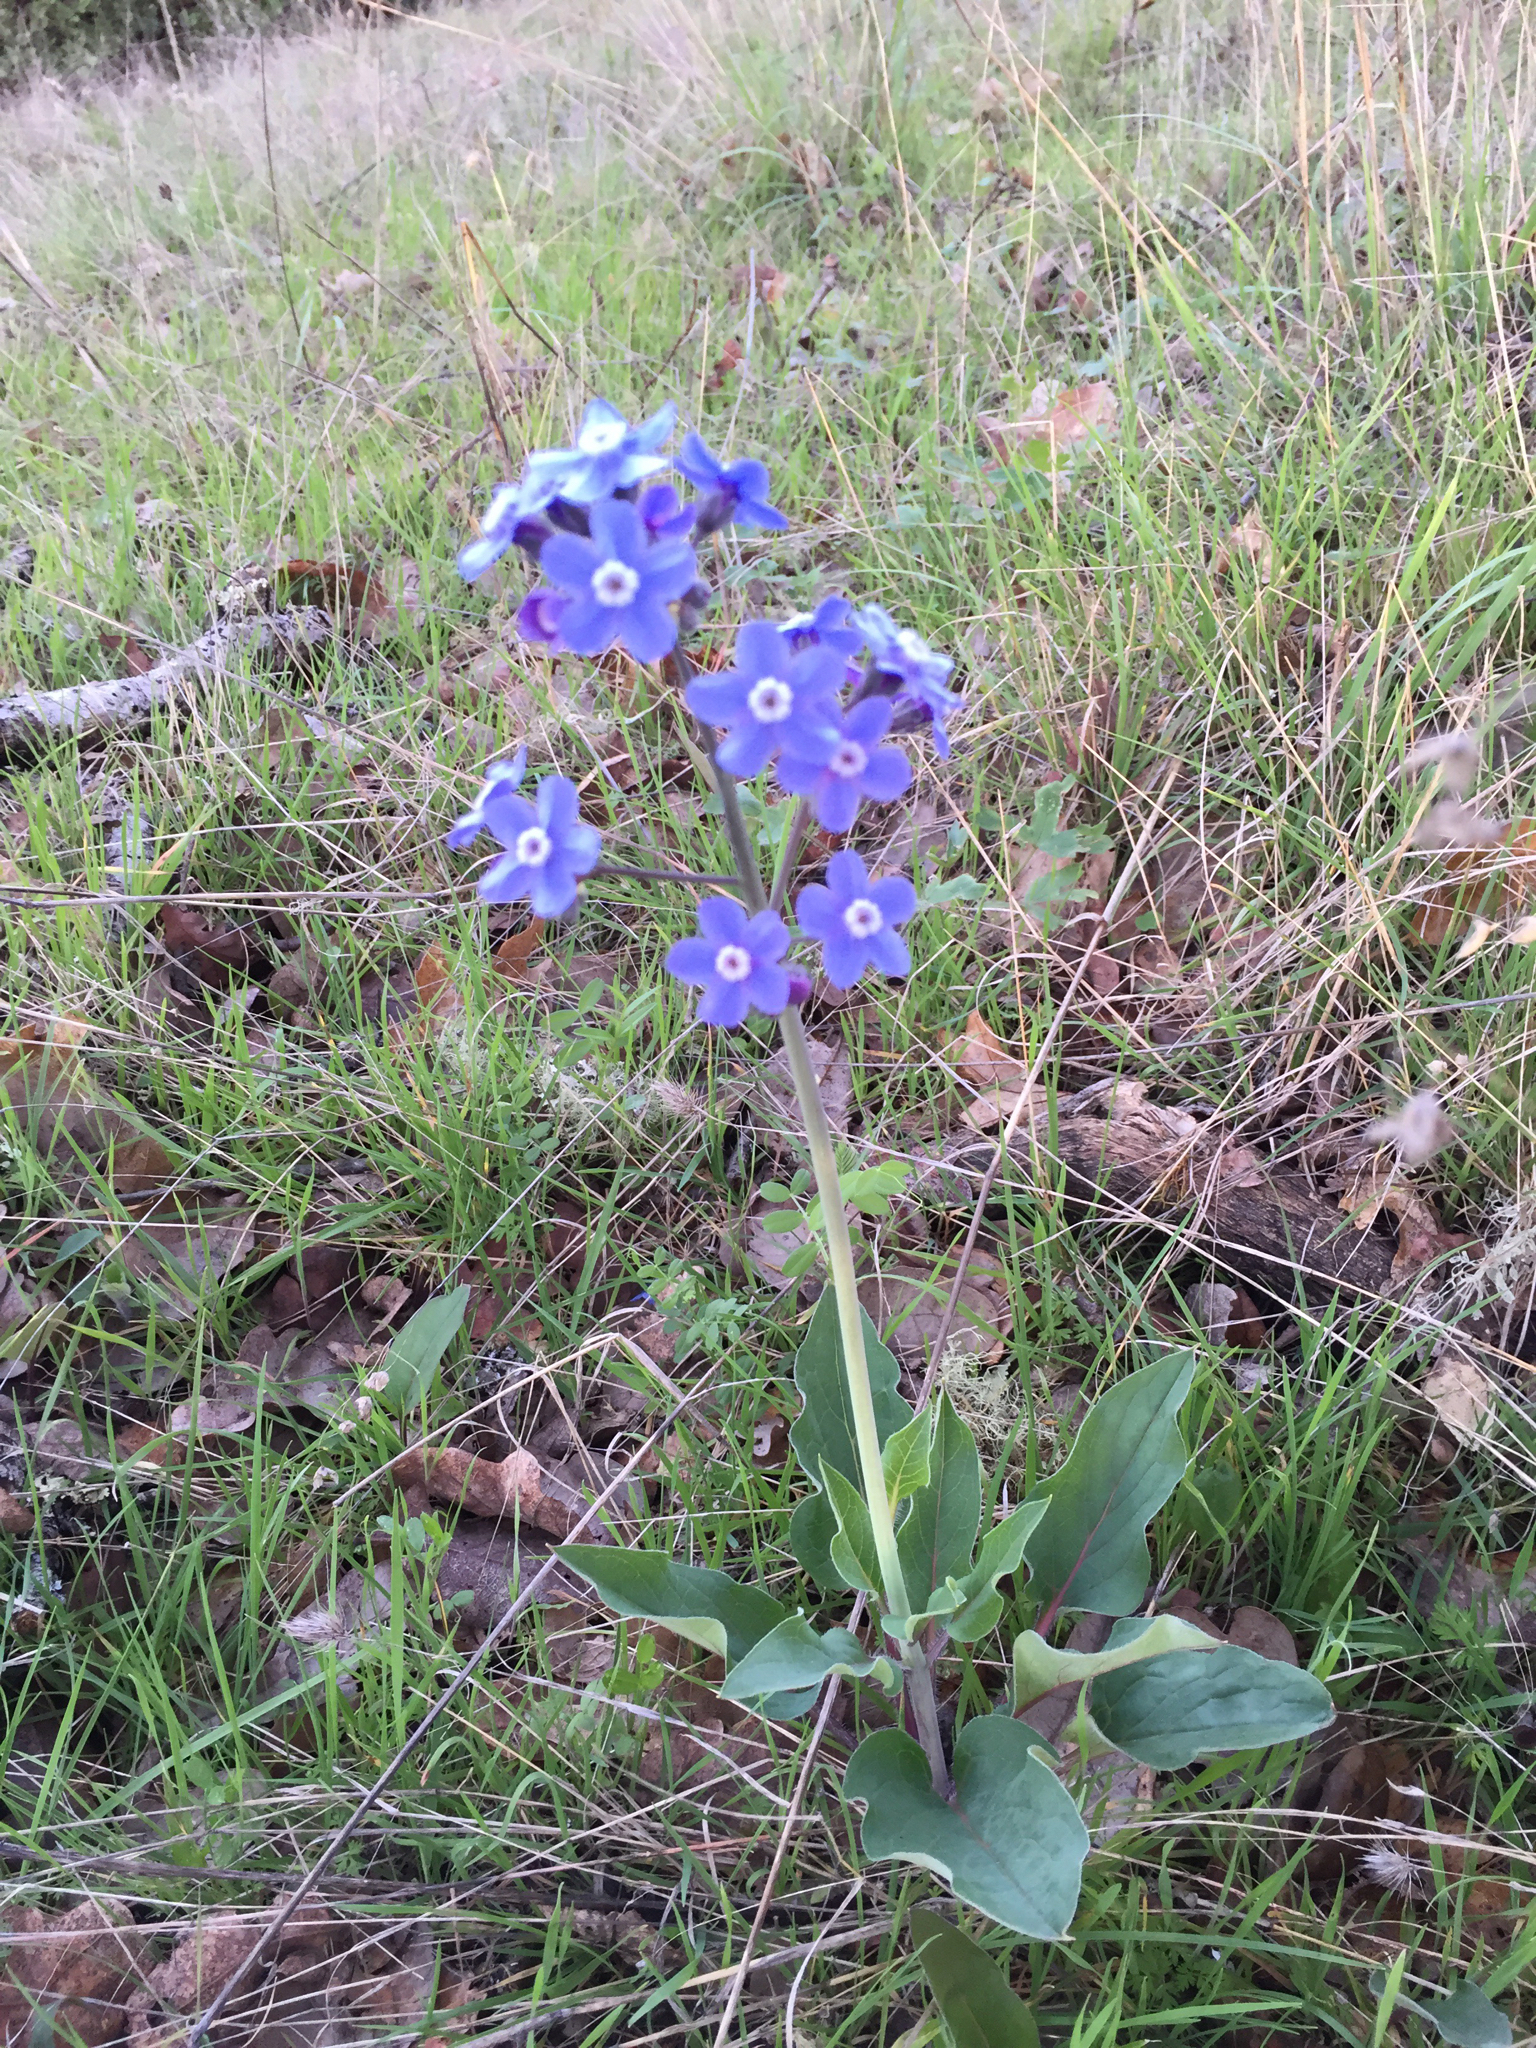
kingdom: Plantae
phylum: Tracheophyta
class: Magnoliopsida
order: Boraginales
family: Boraginaceae
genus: Adelinia
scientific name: Adelinia grande
